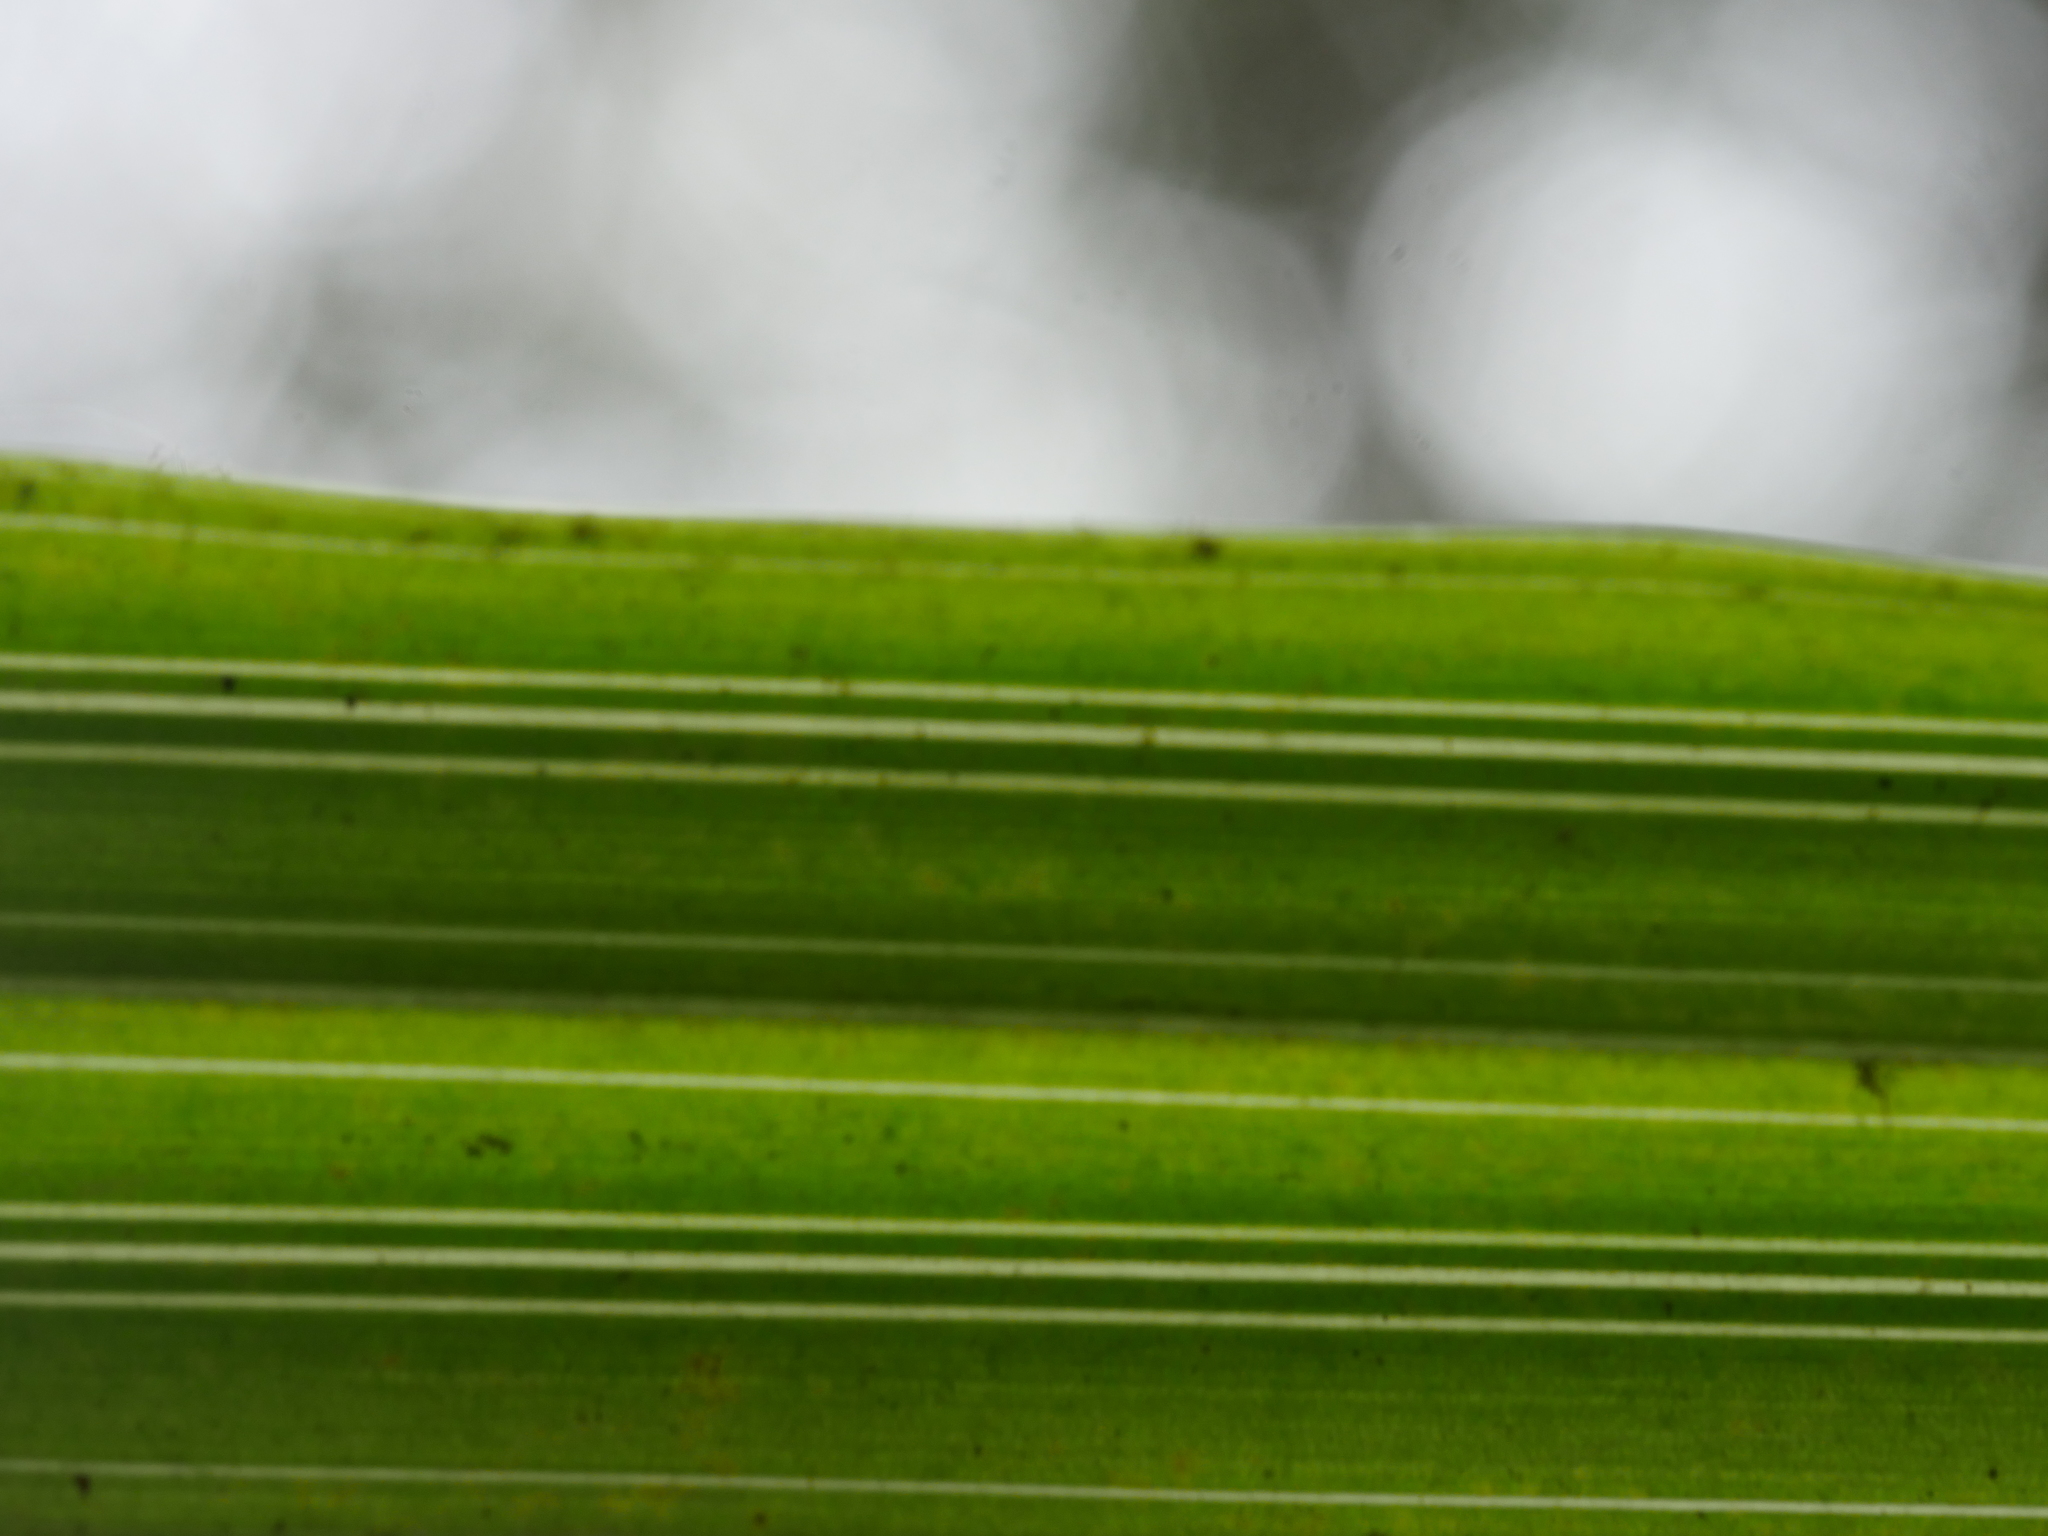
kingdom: Plantae
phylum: Tracheophyta
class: Liliopsida
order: Asparagales
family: Asteliaceae
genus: Astelia
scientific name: Astelia trinervia
